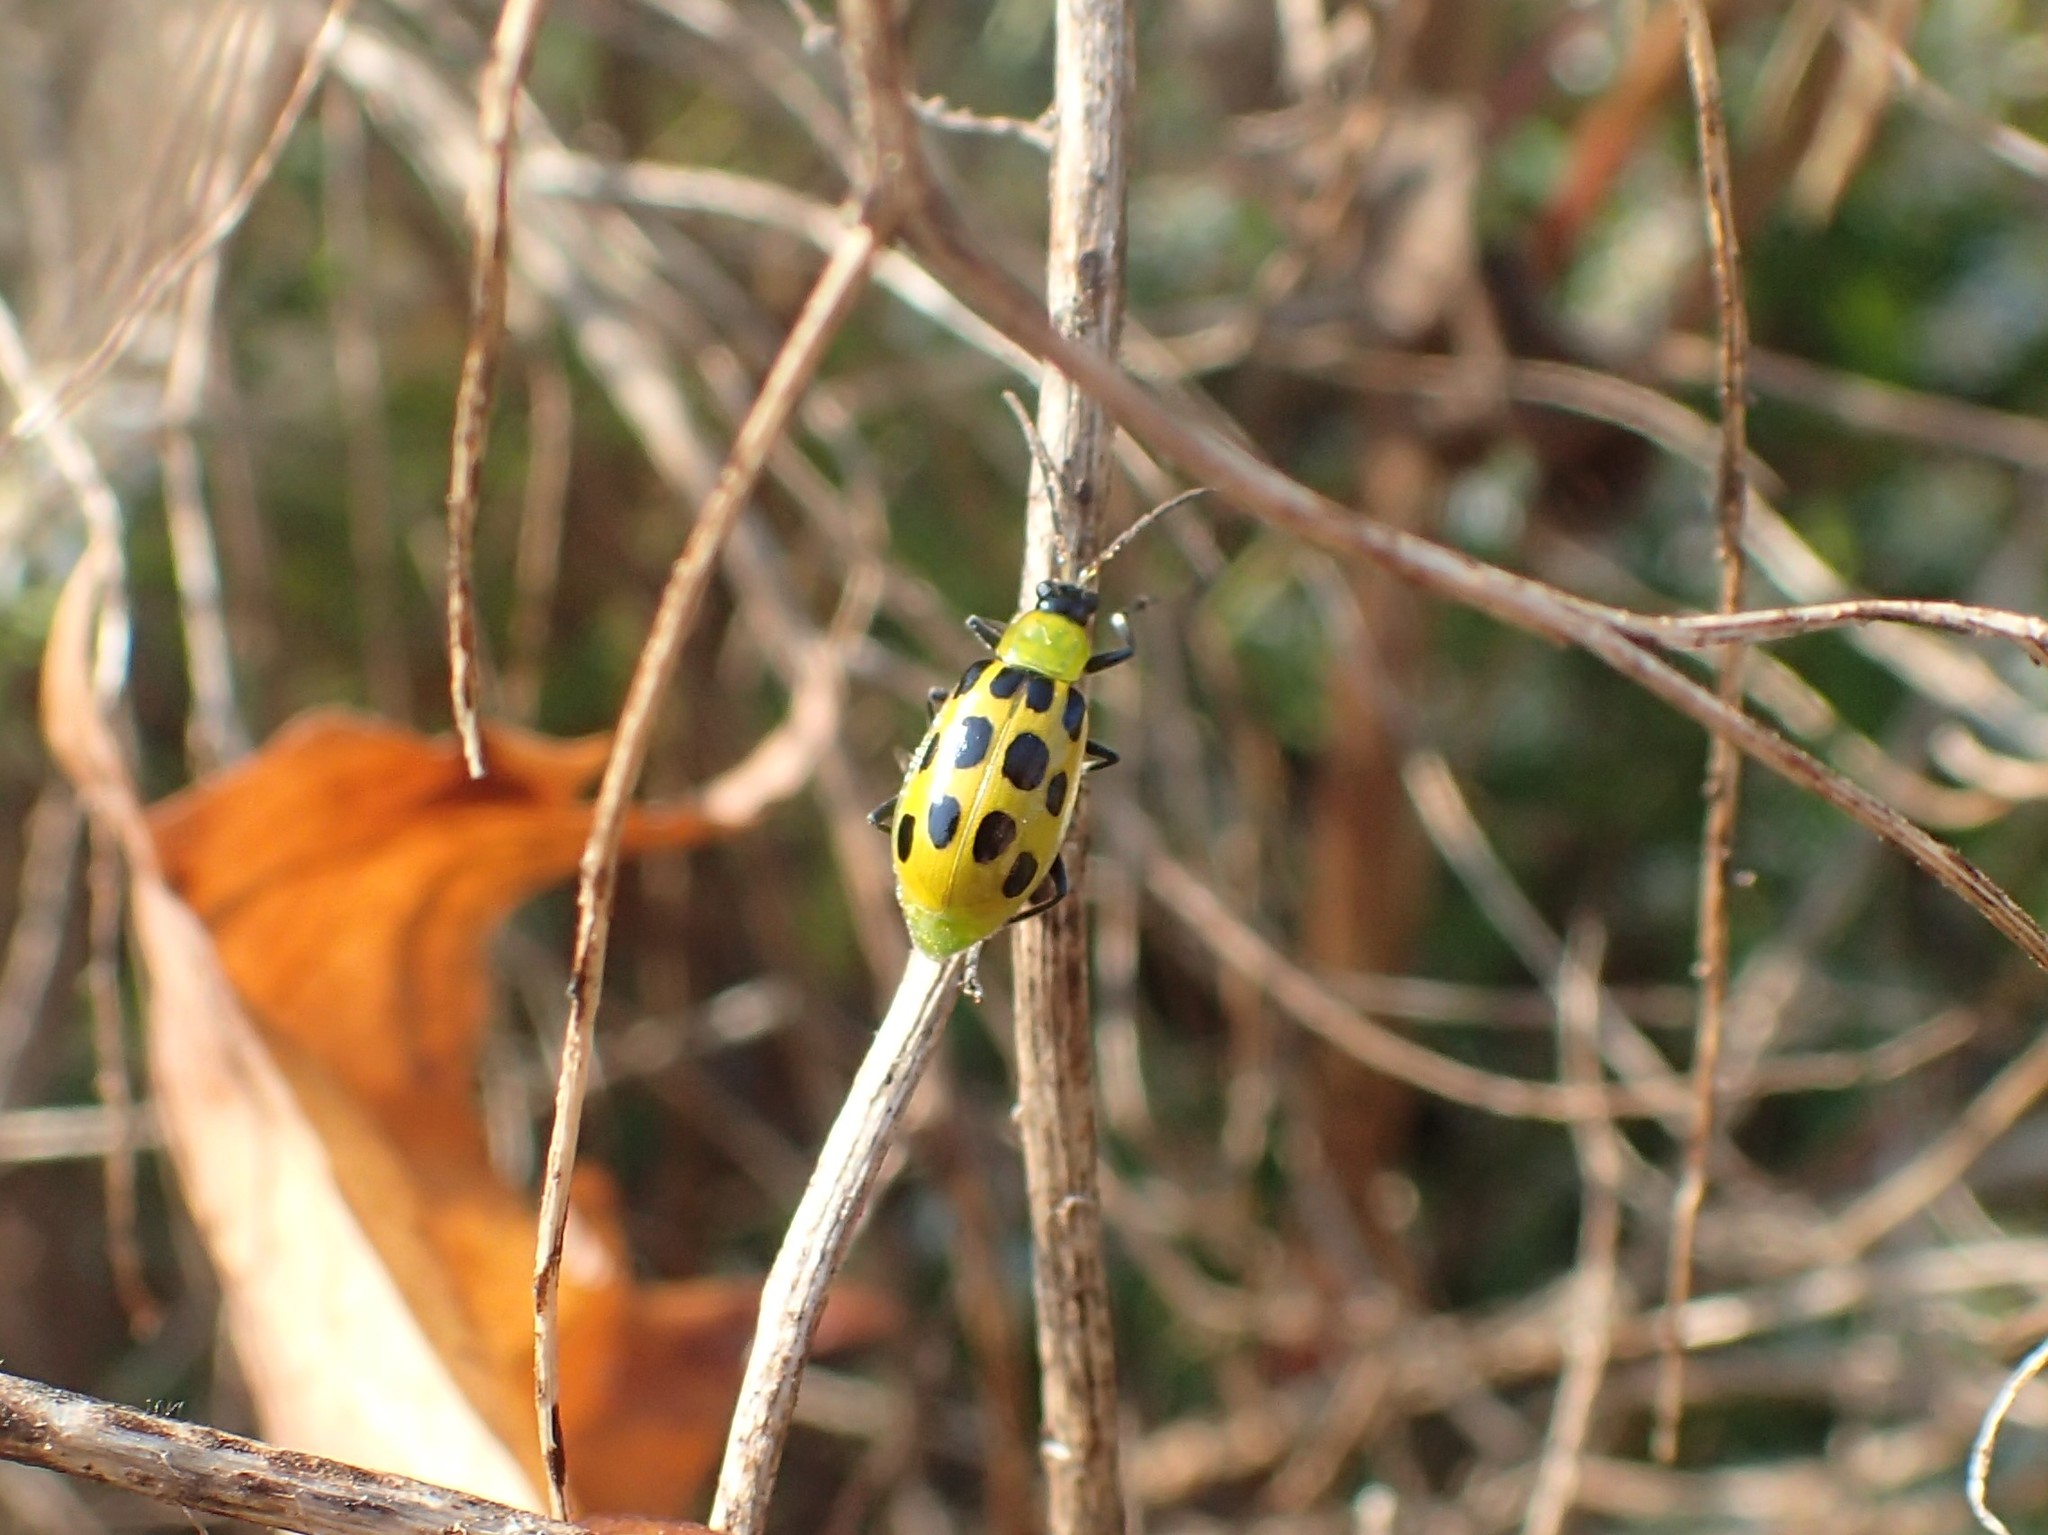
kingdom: Animalia
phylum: Arthropoda
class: Insecta
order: Coleoptera
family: Chrysomelidae
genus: Diabrotica
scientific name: Diabrotica undecimpunctata
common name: Spotted cucumber beetle
